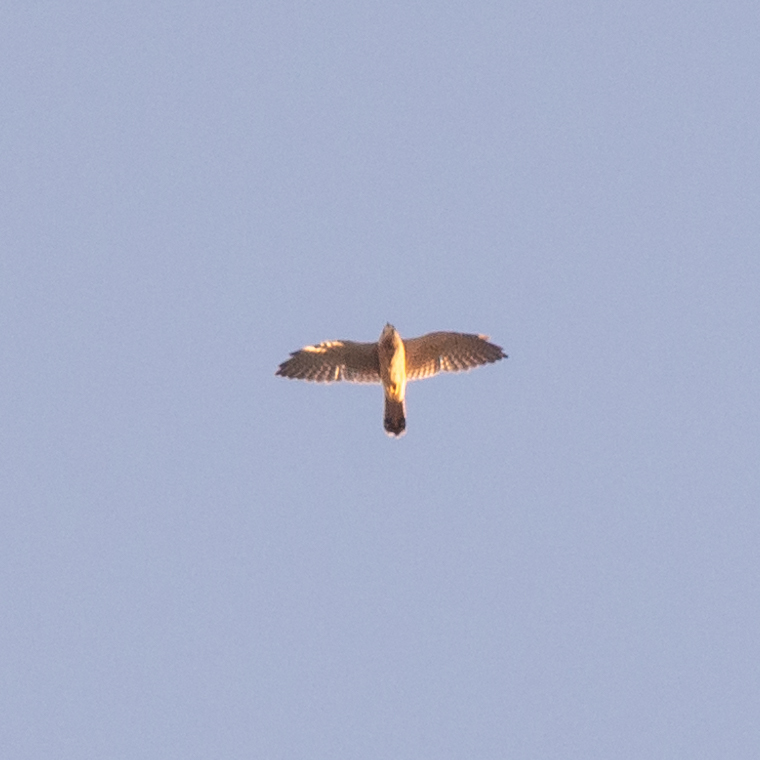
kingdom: Animalia
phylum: Chordata
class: Aves
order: Falconiformes
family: Falconidae
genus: Falco
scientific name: Falco tinnunculus
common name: Common kestrel
